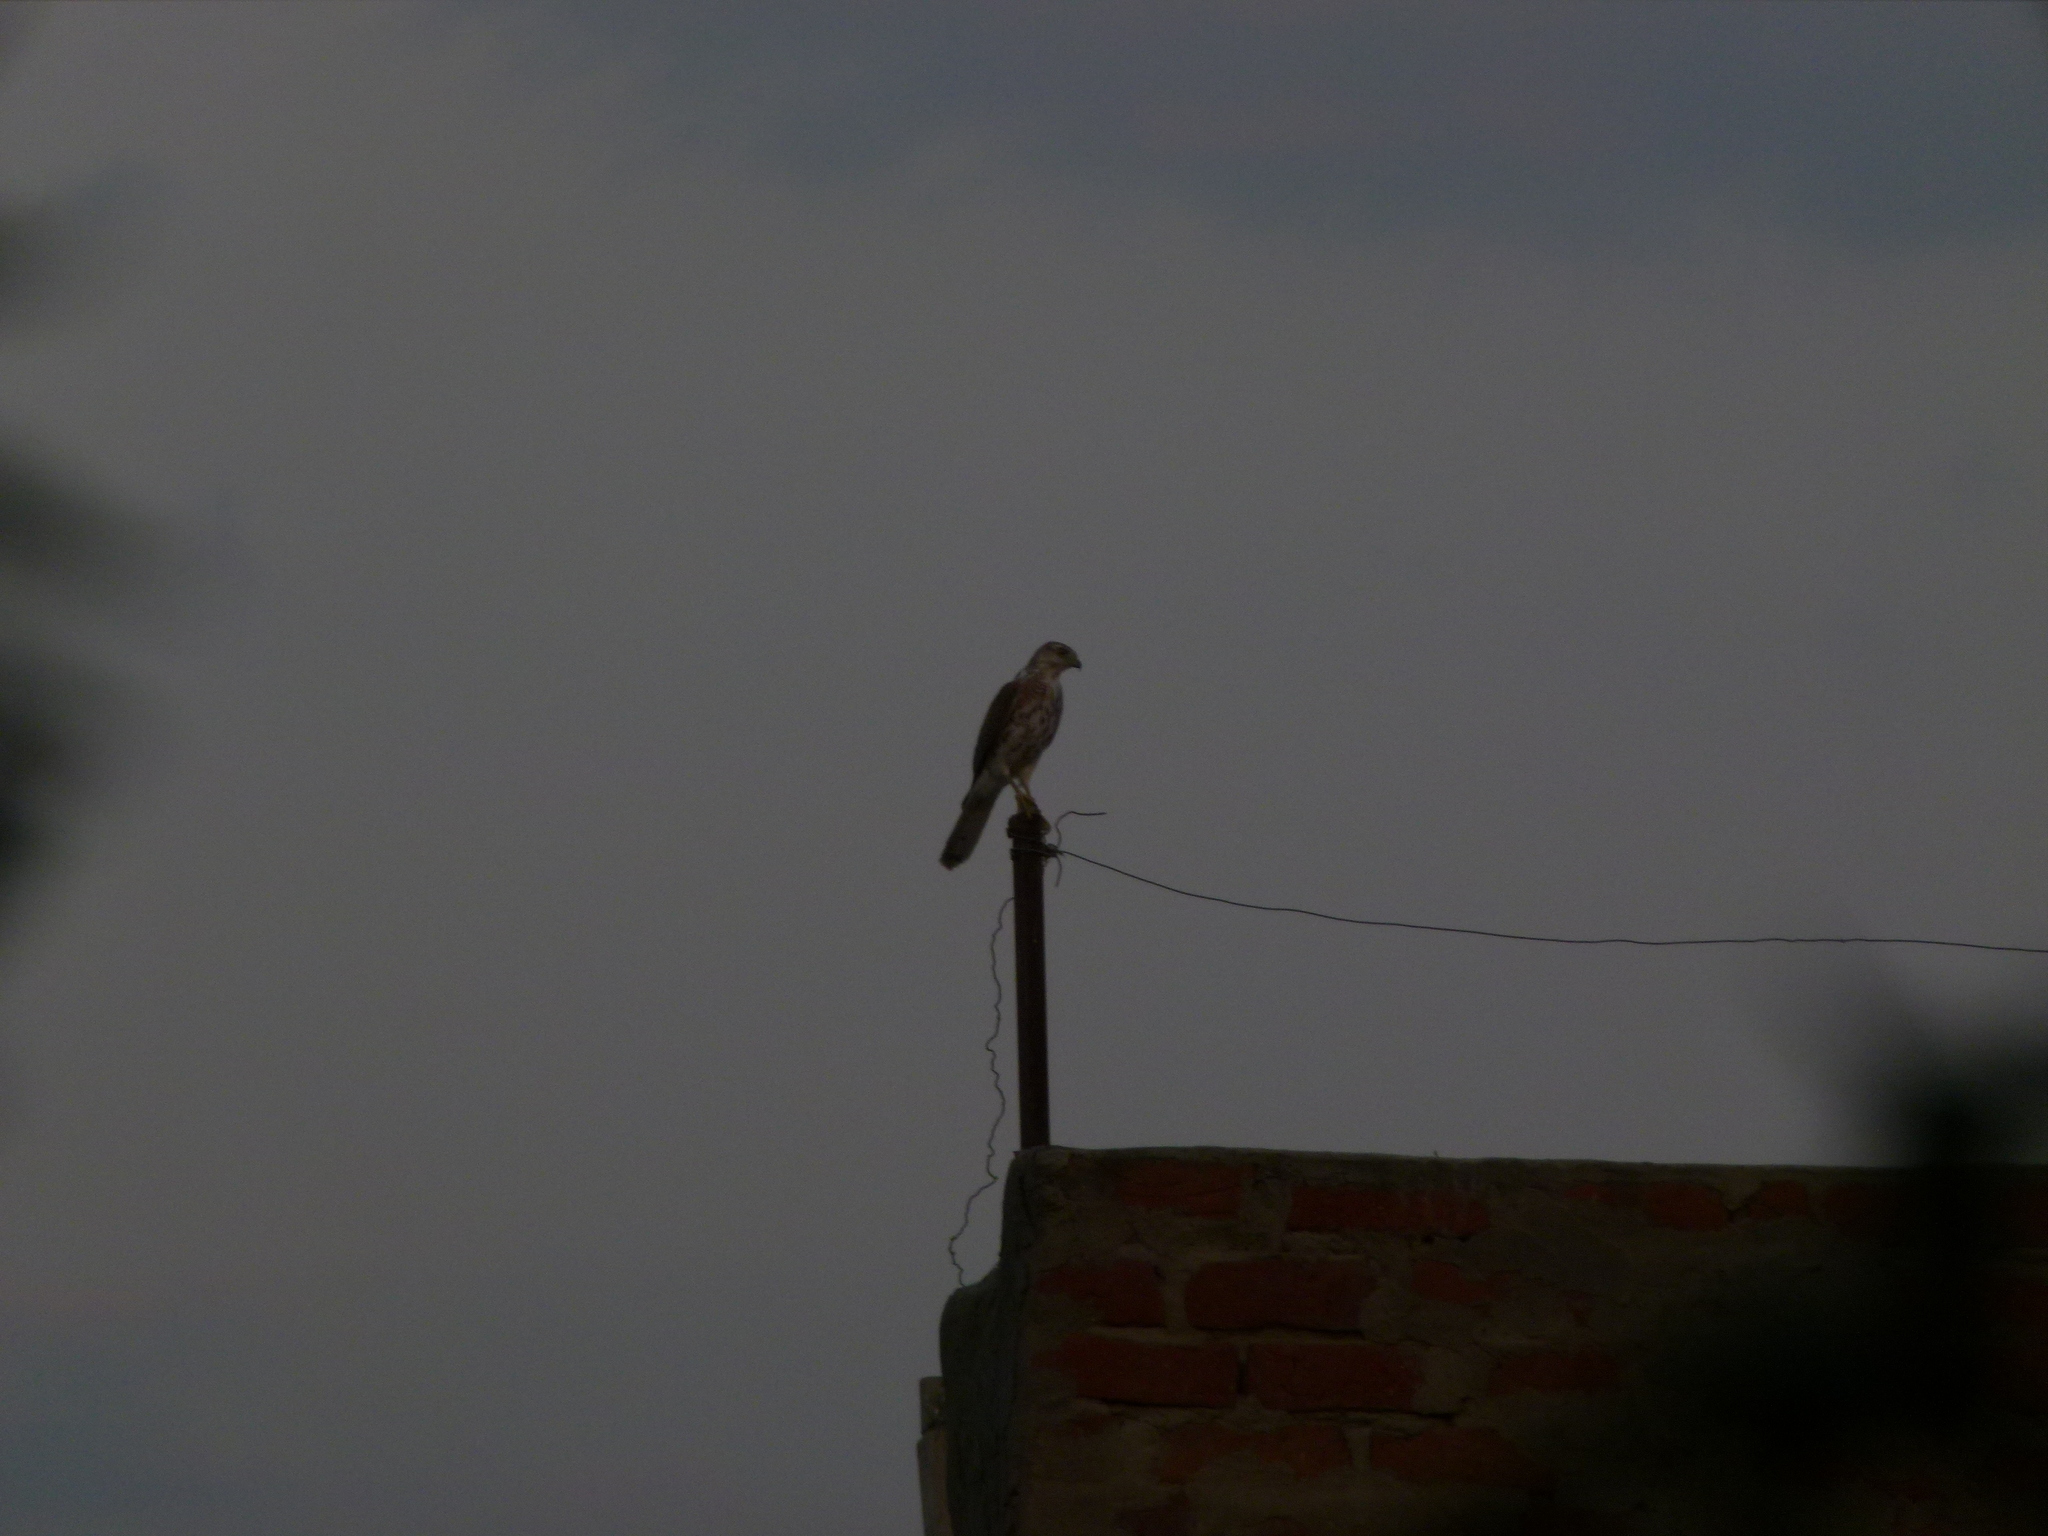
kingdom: Animalia
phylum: Chordata
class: Aves
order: Accipitriformes
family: Accipitridae
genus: Accipiter
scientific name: Accipiter badius
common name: Shikra
